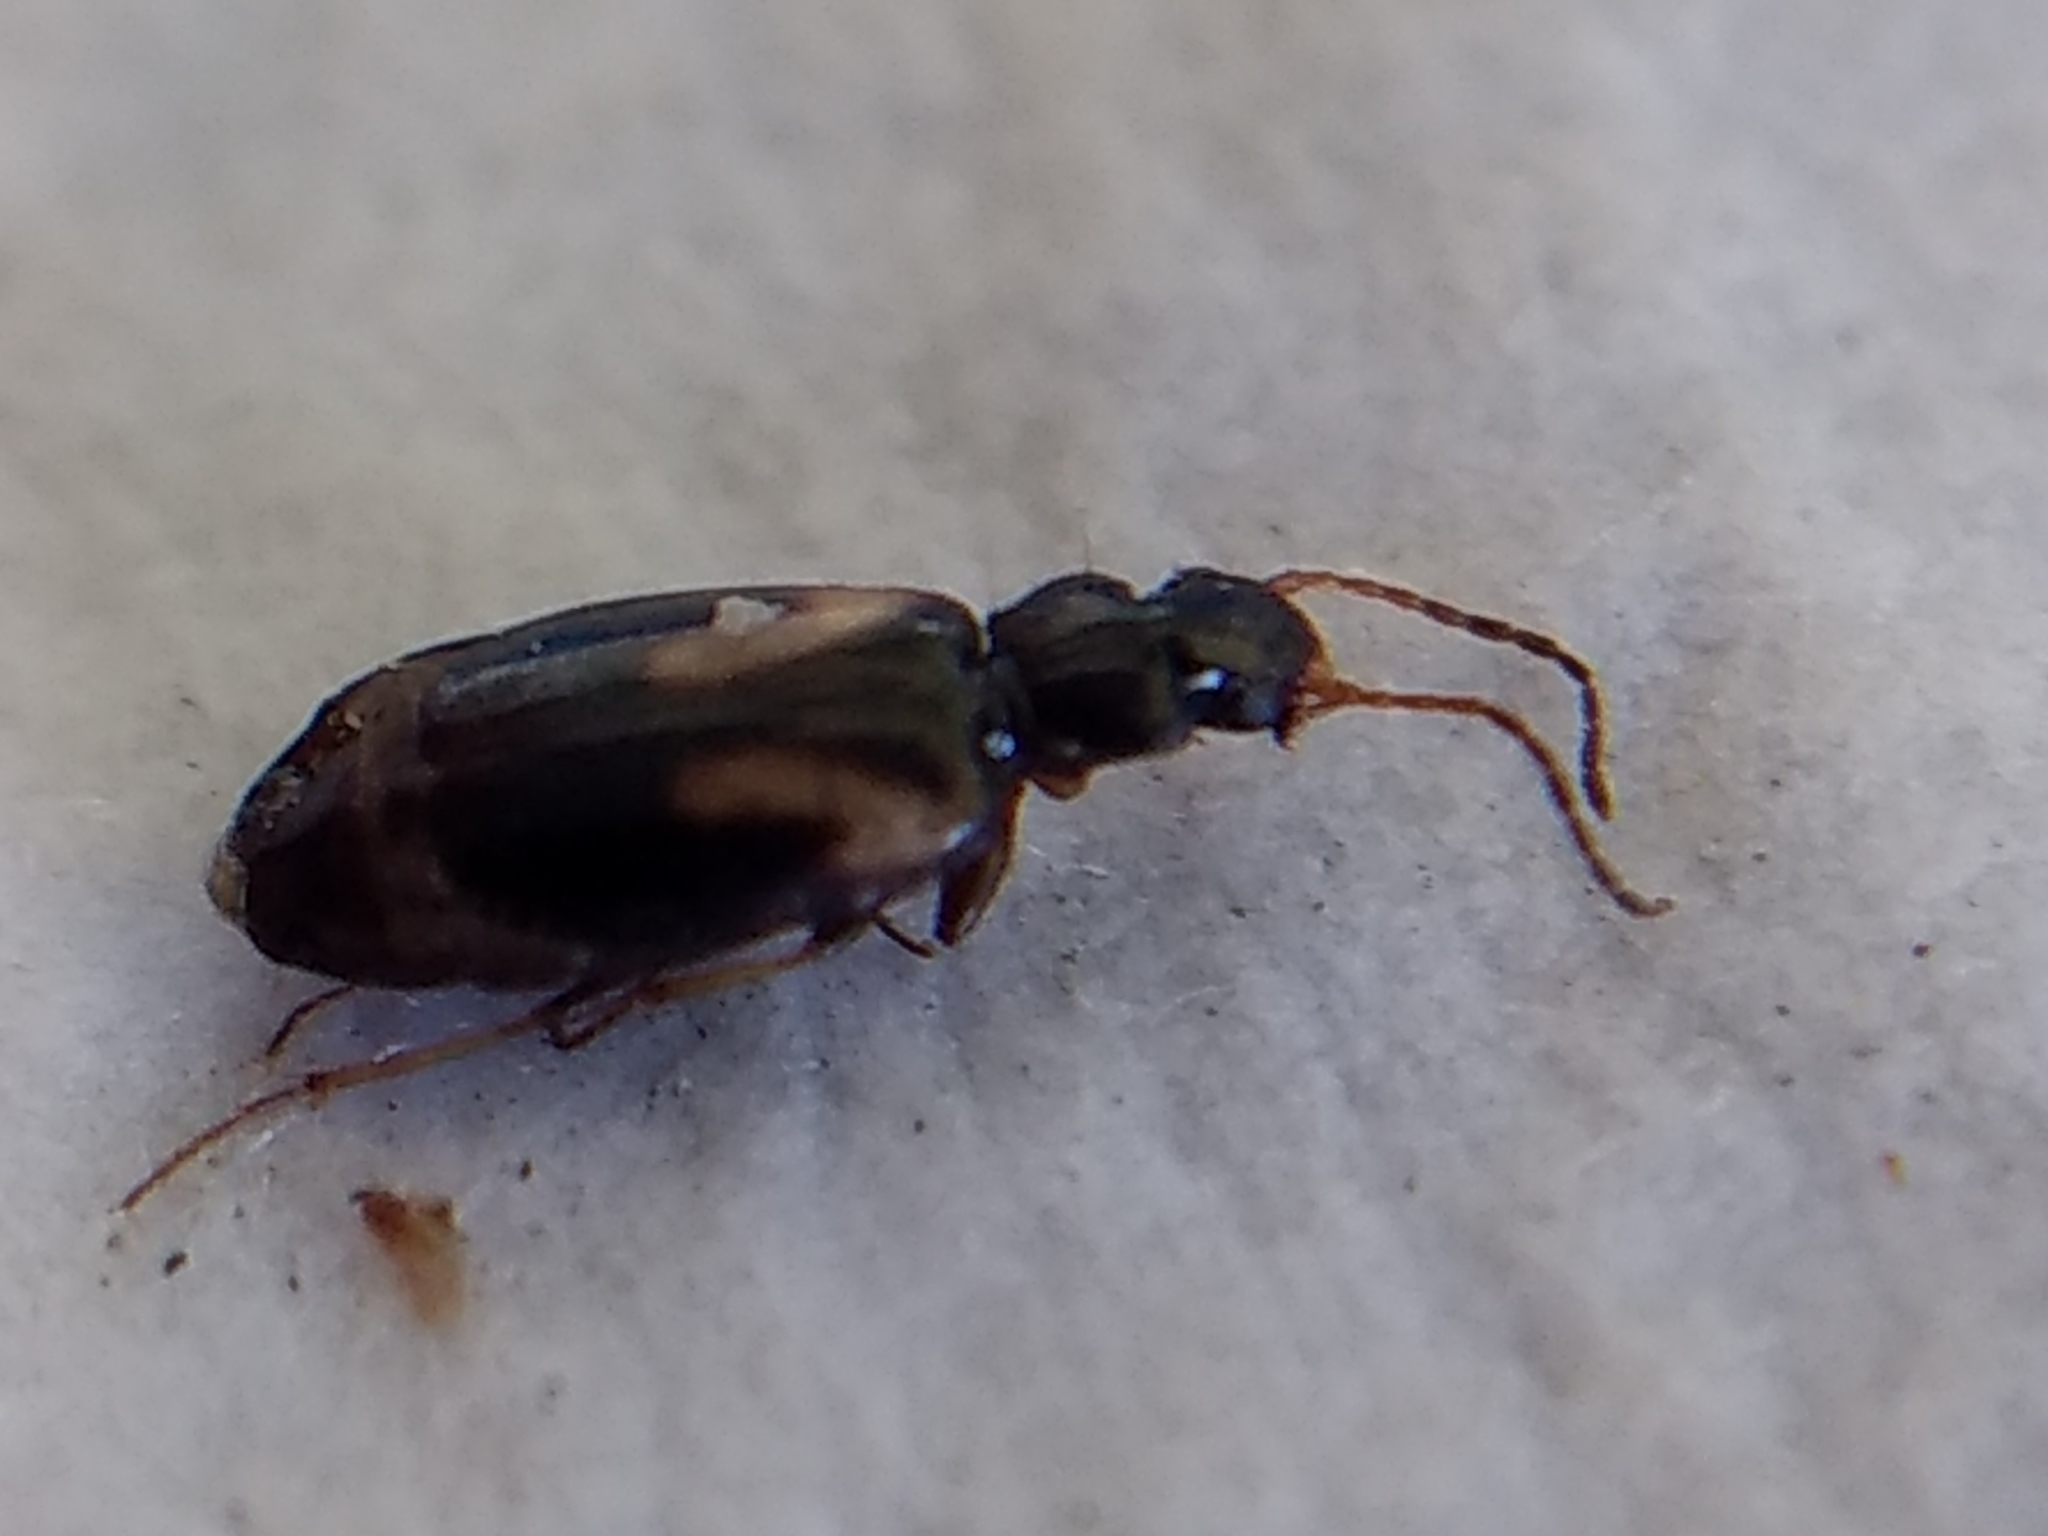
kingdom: Animalia
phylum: Arthropoda
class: Insecta
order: Coleoptera
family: Carabidae
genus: Axinopalpus
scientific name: Axinopalpus biplagiatus
